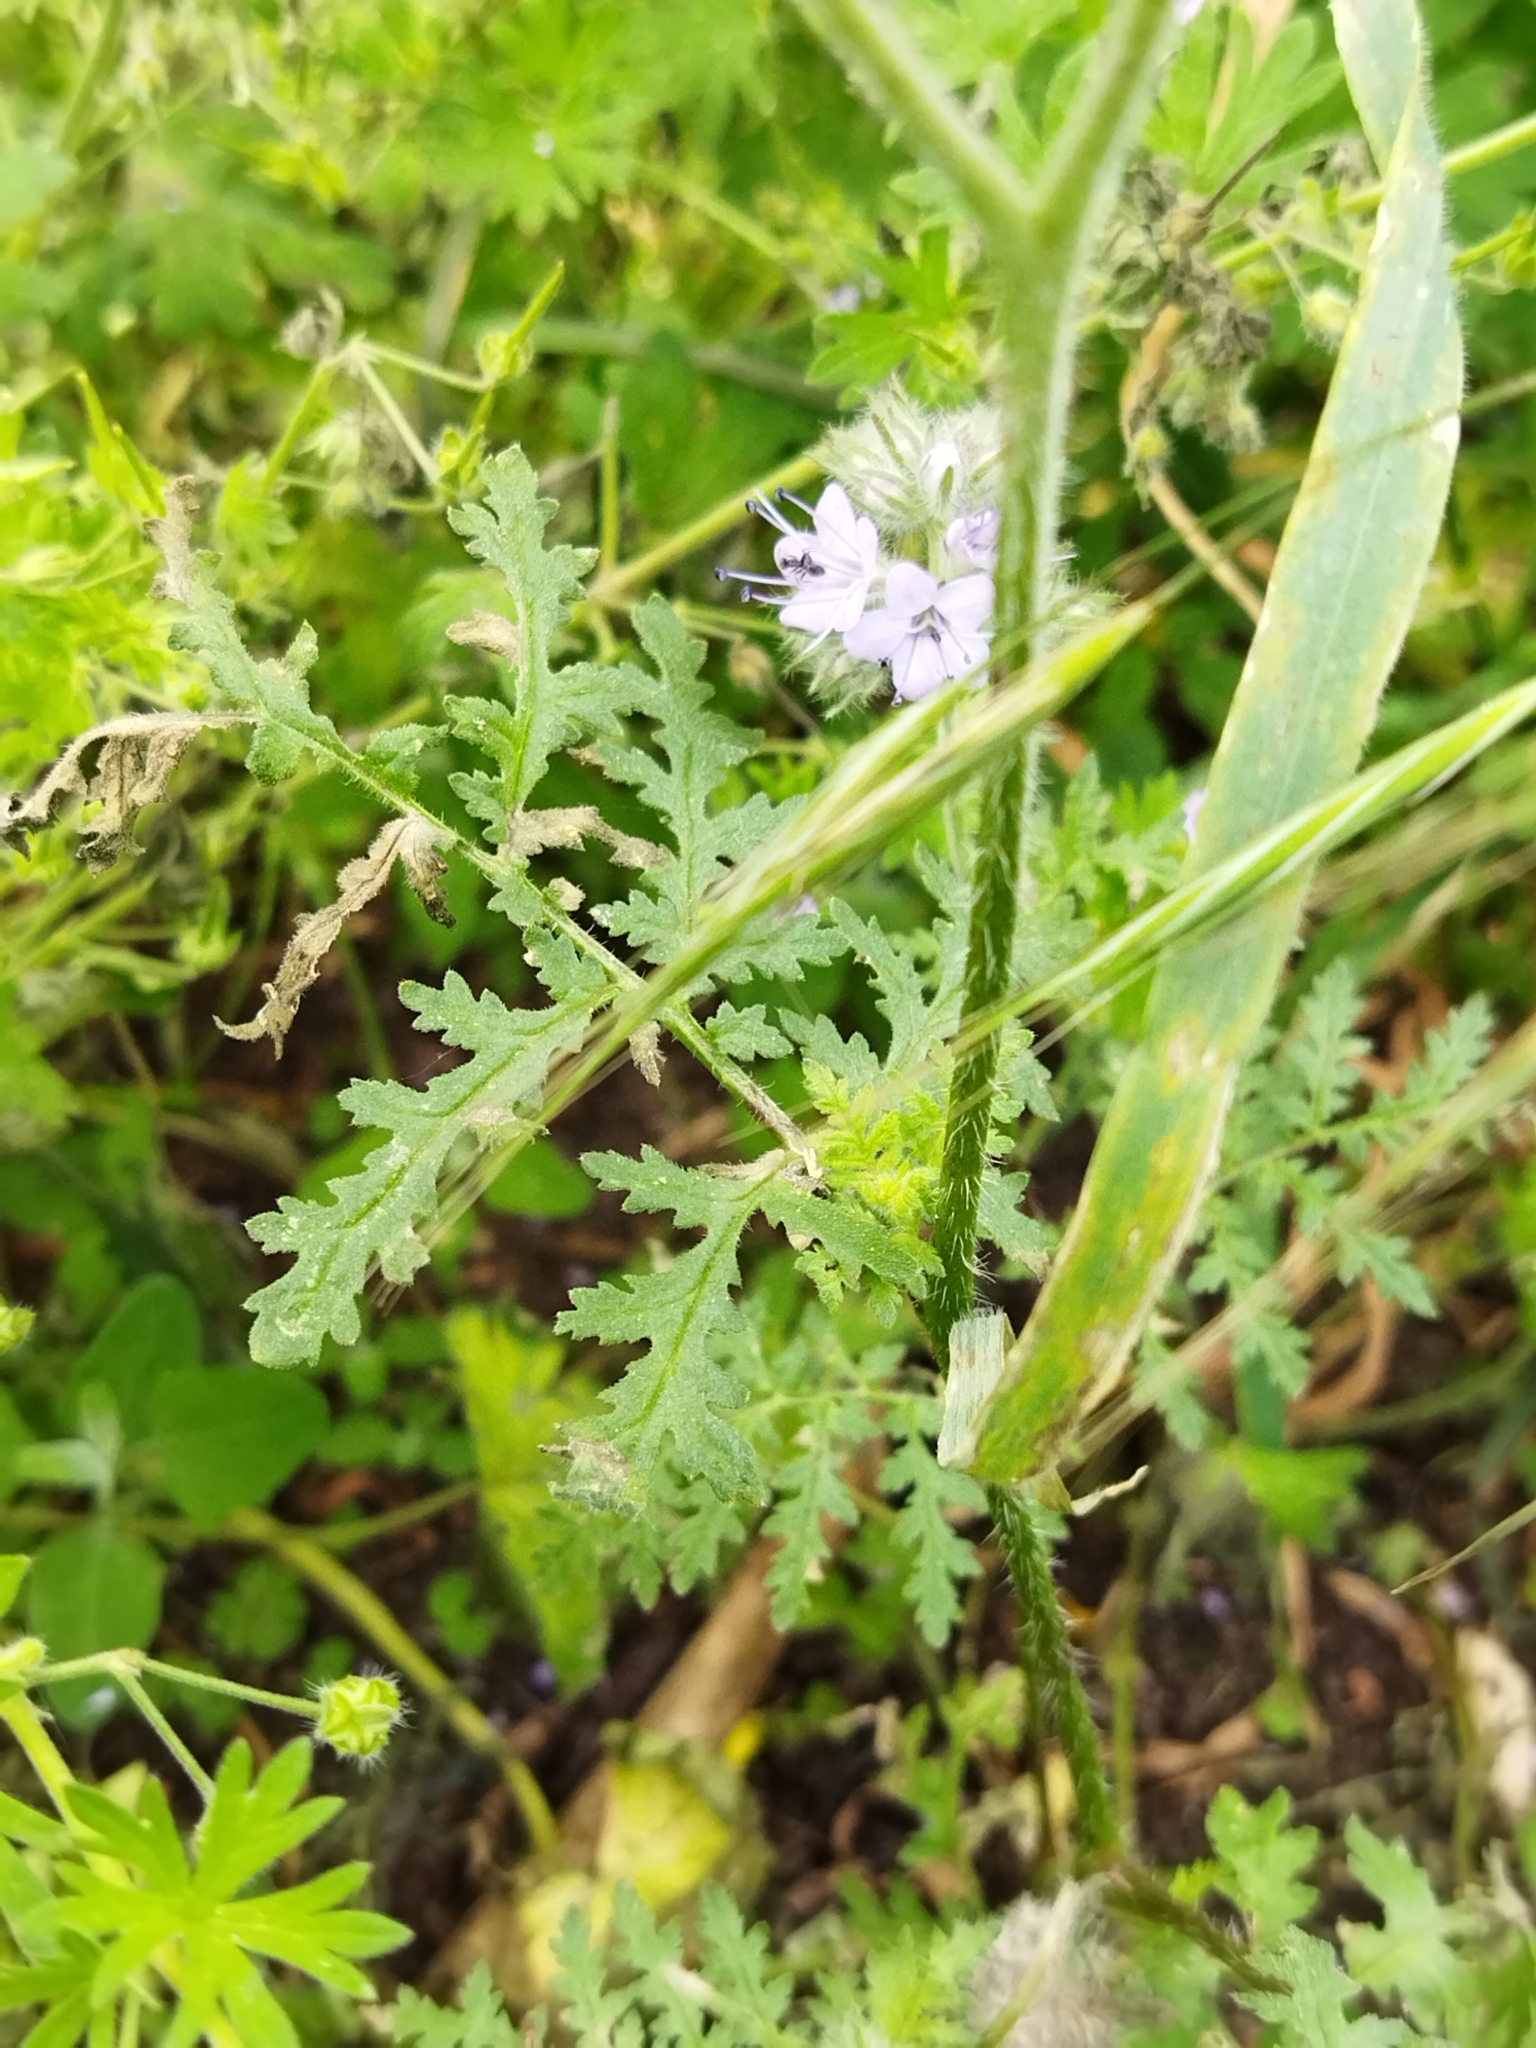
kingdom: Plantae
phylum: Tracheophyta
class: Magnoliopsida
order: Boraginales
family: Hydrophyllaceae
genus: Phacelia
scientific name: Phacelia tanacetifolia
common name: Phacelia
